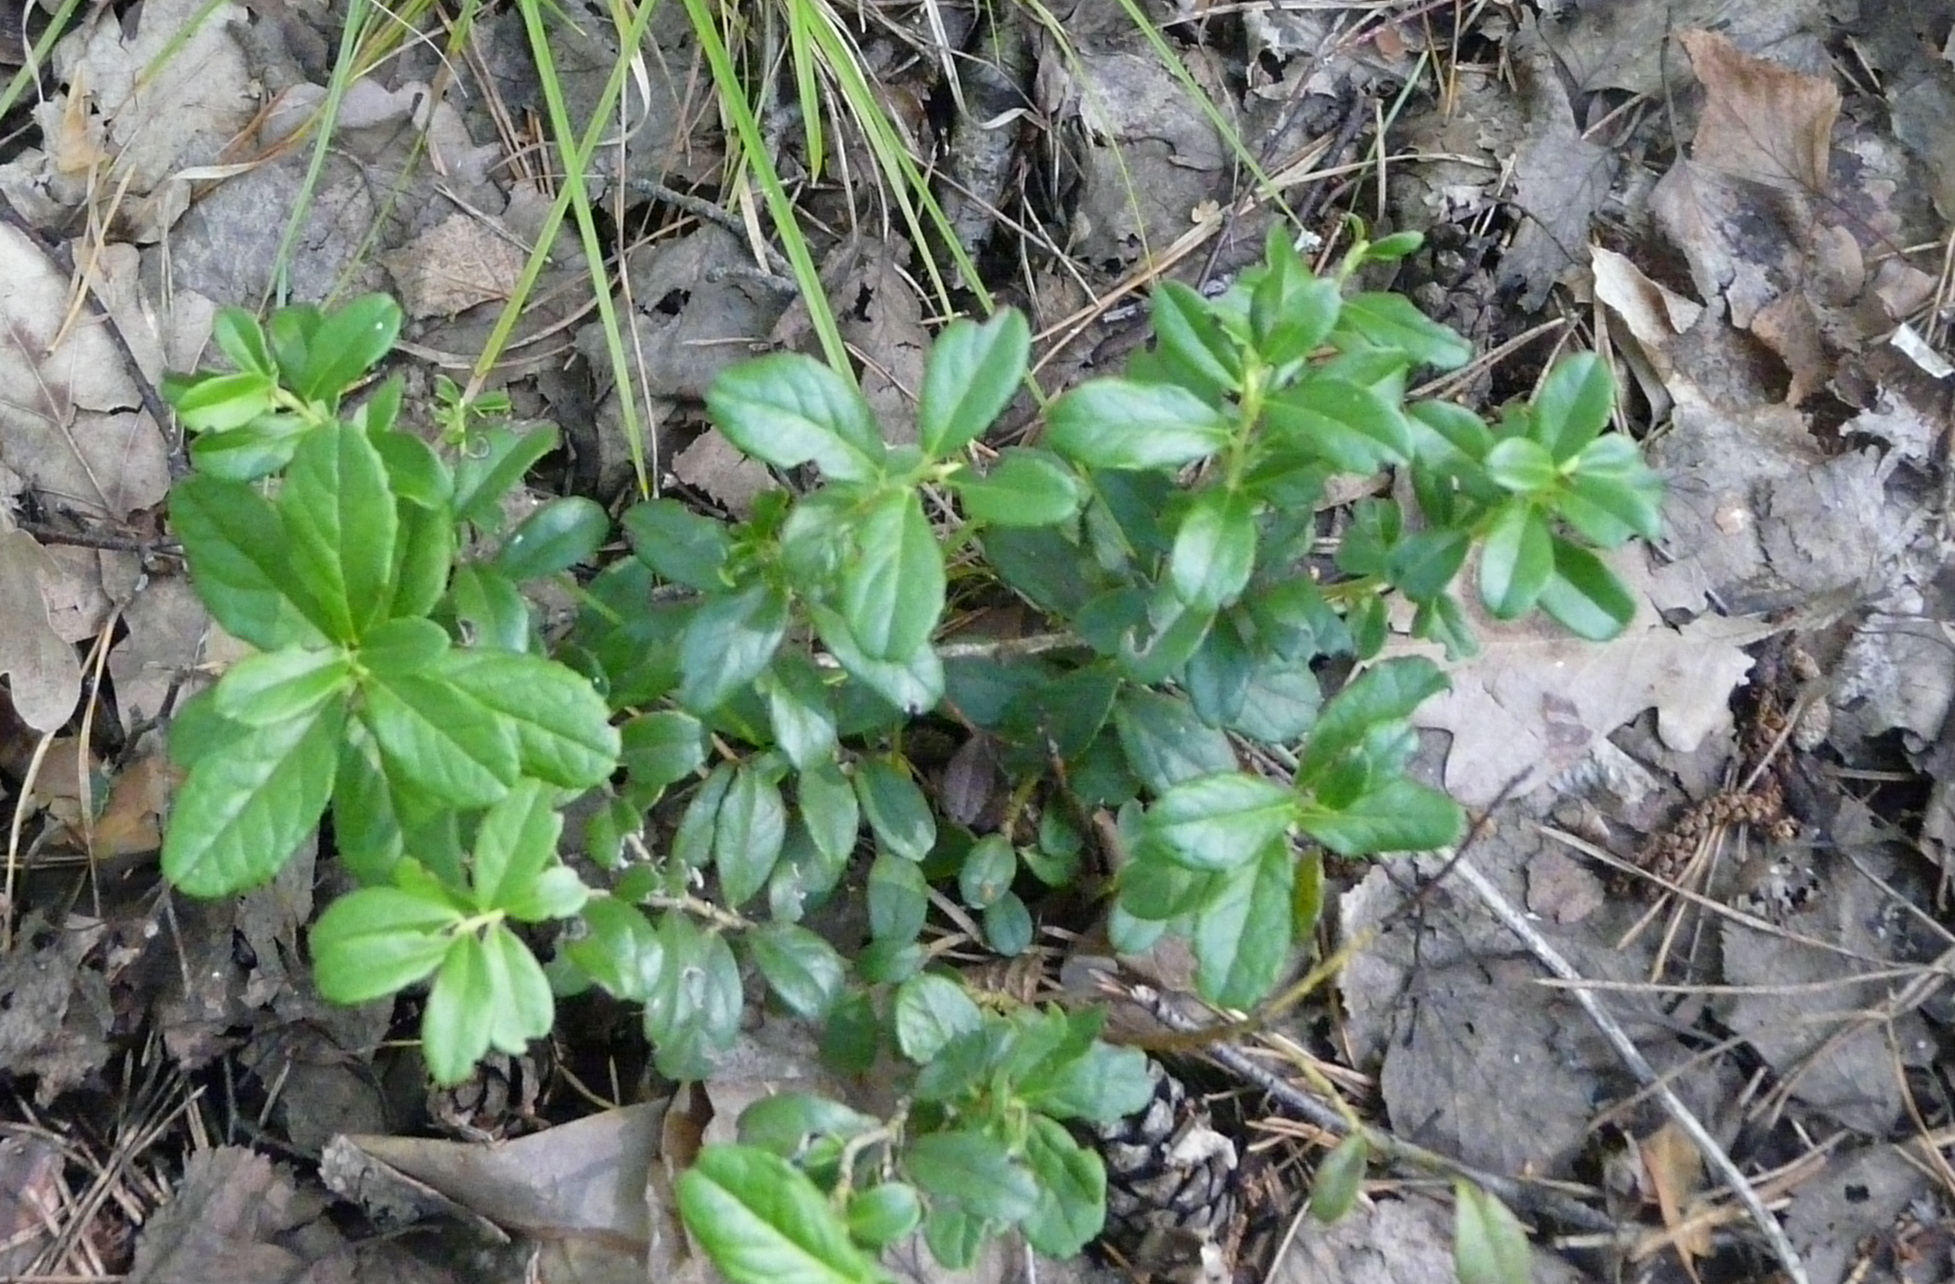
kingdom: Plantae
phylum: Tracheophyta
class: Magnoliopsida
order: Ericales
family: Ericaceae
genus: Vaccinium
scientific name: Vaccinium vitis-idaea
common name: Cowberry
